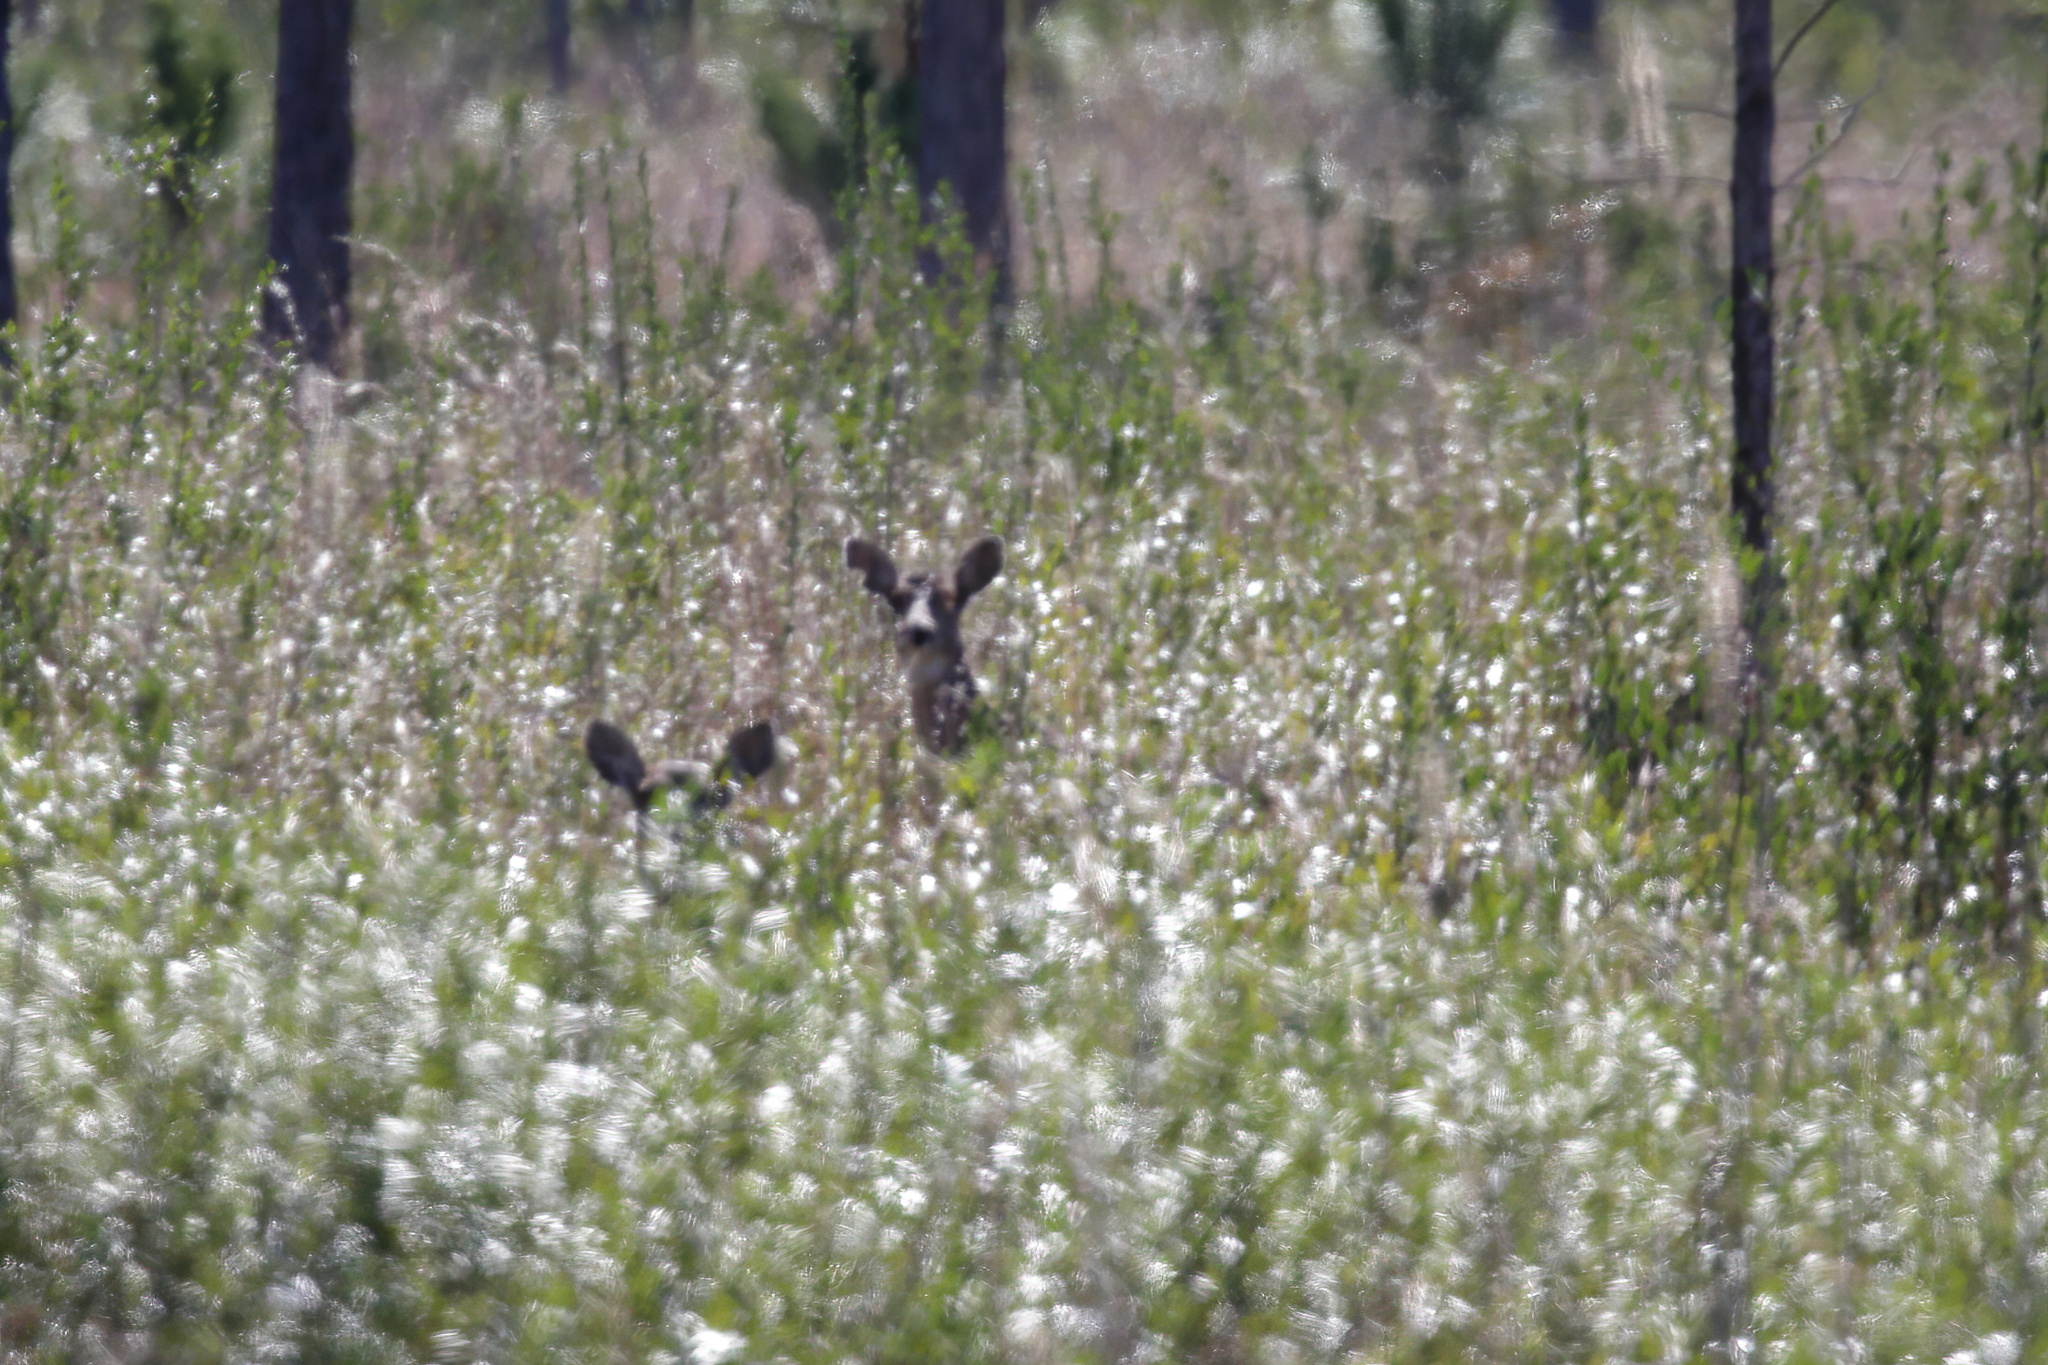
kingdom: Animalia
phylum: Chordata
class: Mammalia
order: Artiodactyla
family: Cervidae
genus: Odocoileus
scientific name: Odocoileus virginianus
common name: White-tailed deer
